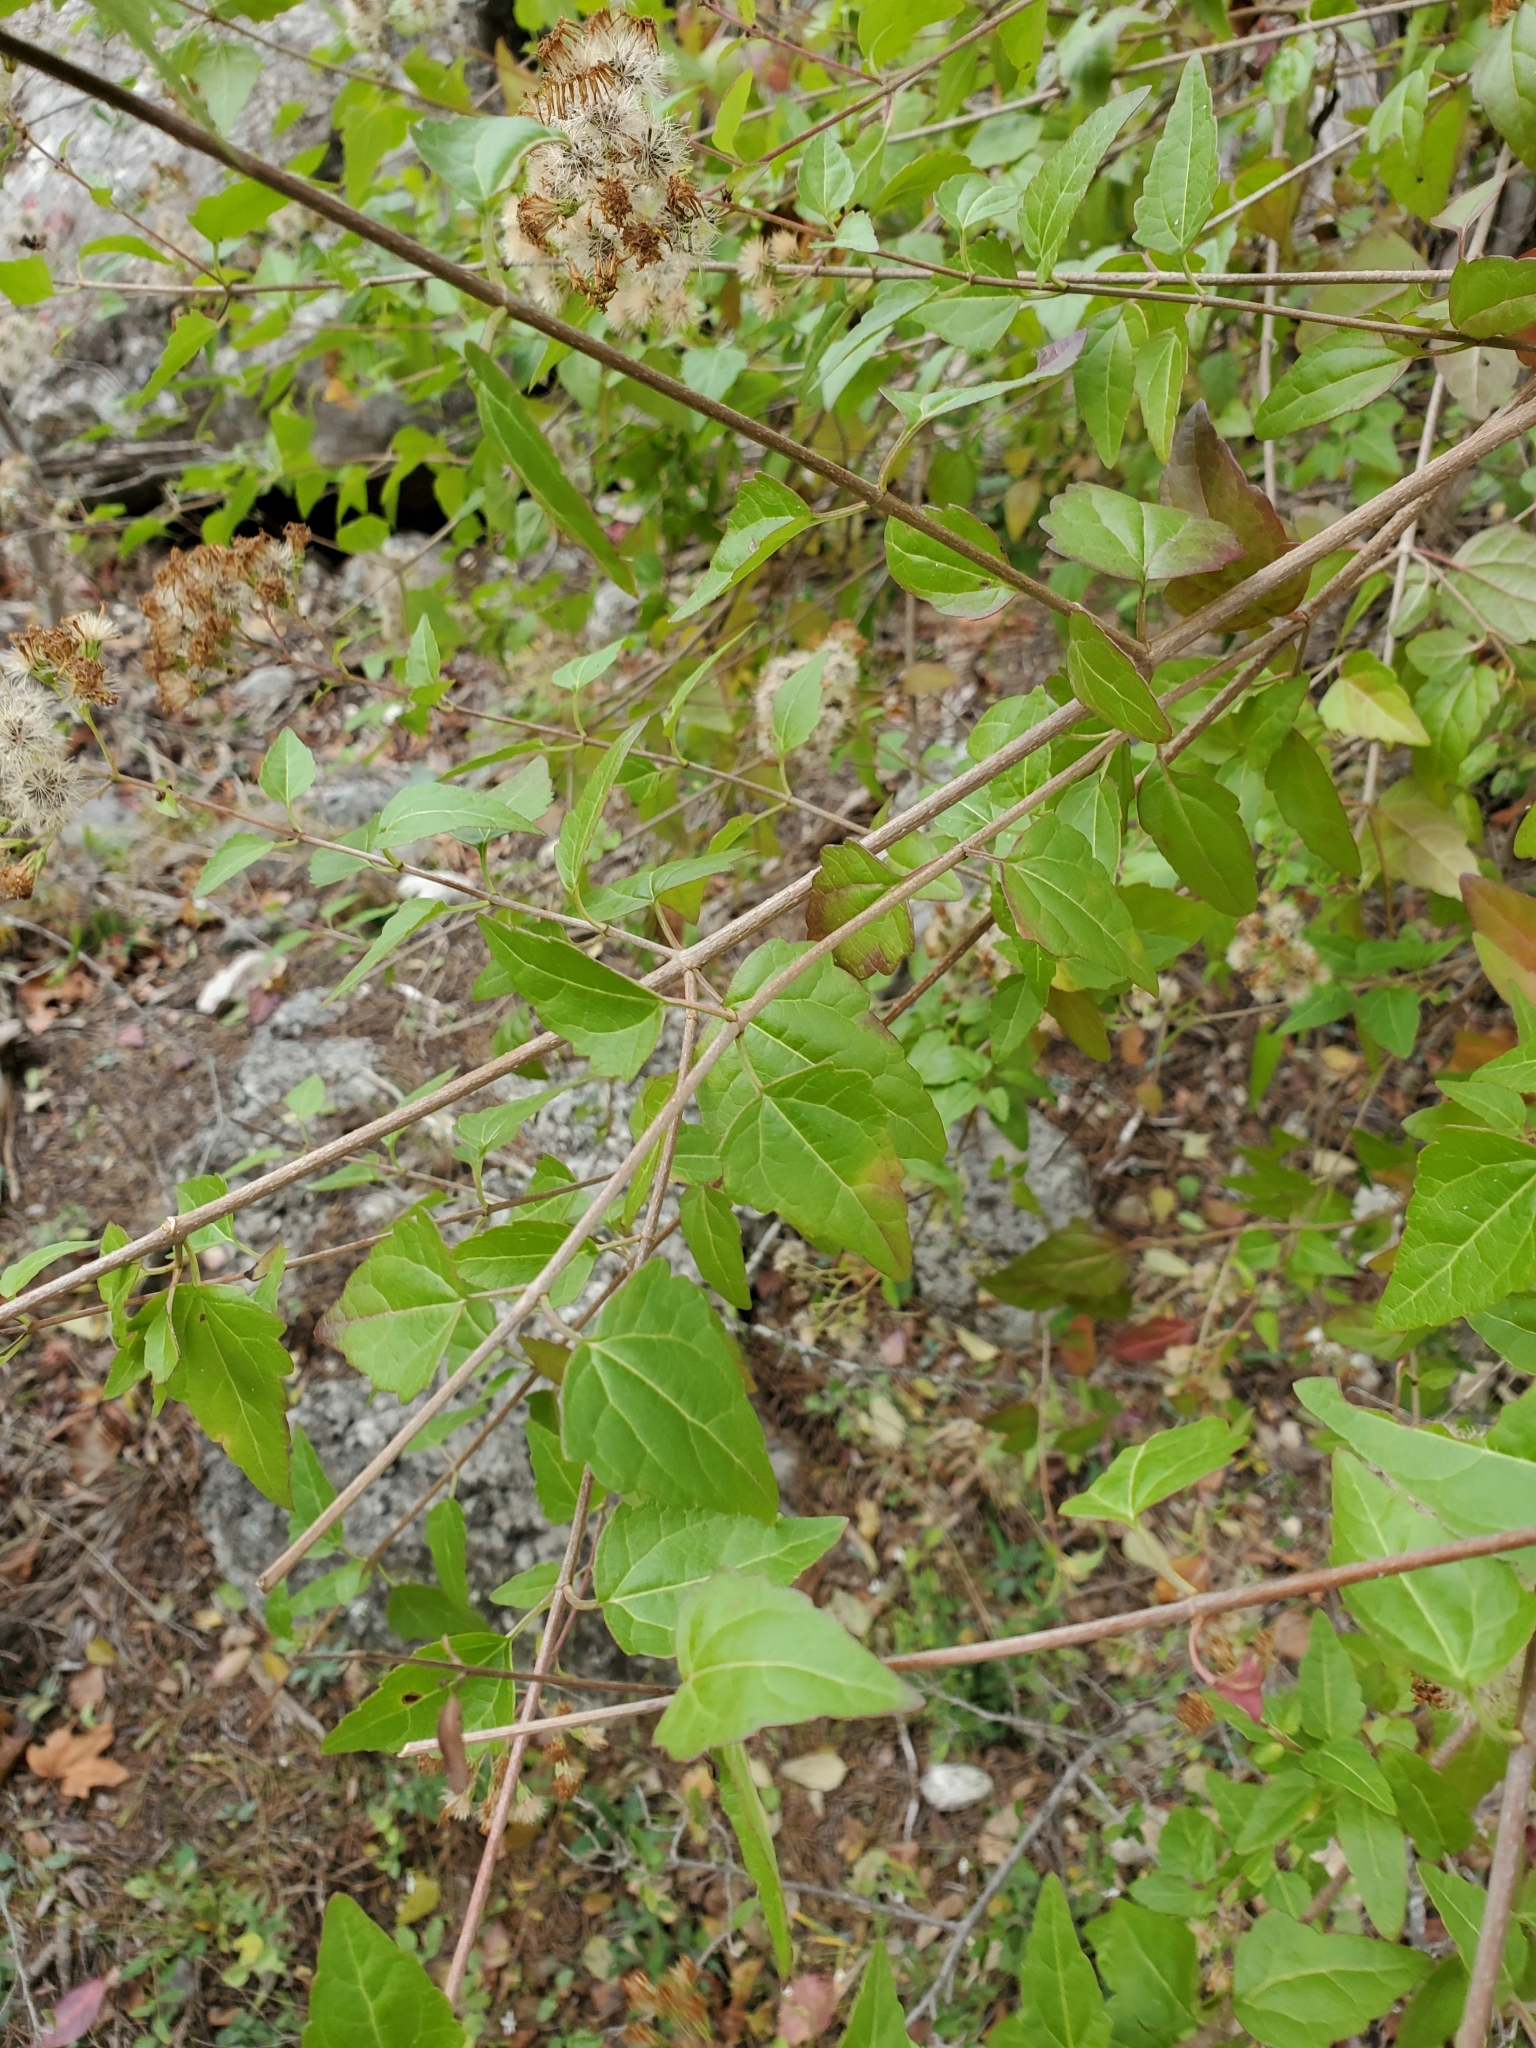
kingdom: Plantae
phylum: Tracheophyta
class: Magnoliopsida
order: Asterales
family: Asteraceae
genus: Ageratina
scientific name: Ageratina havanensis
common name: Havana snakeroot
